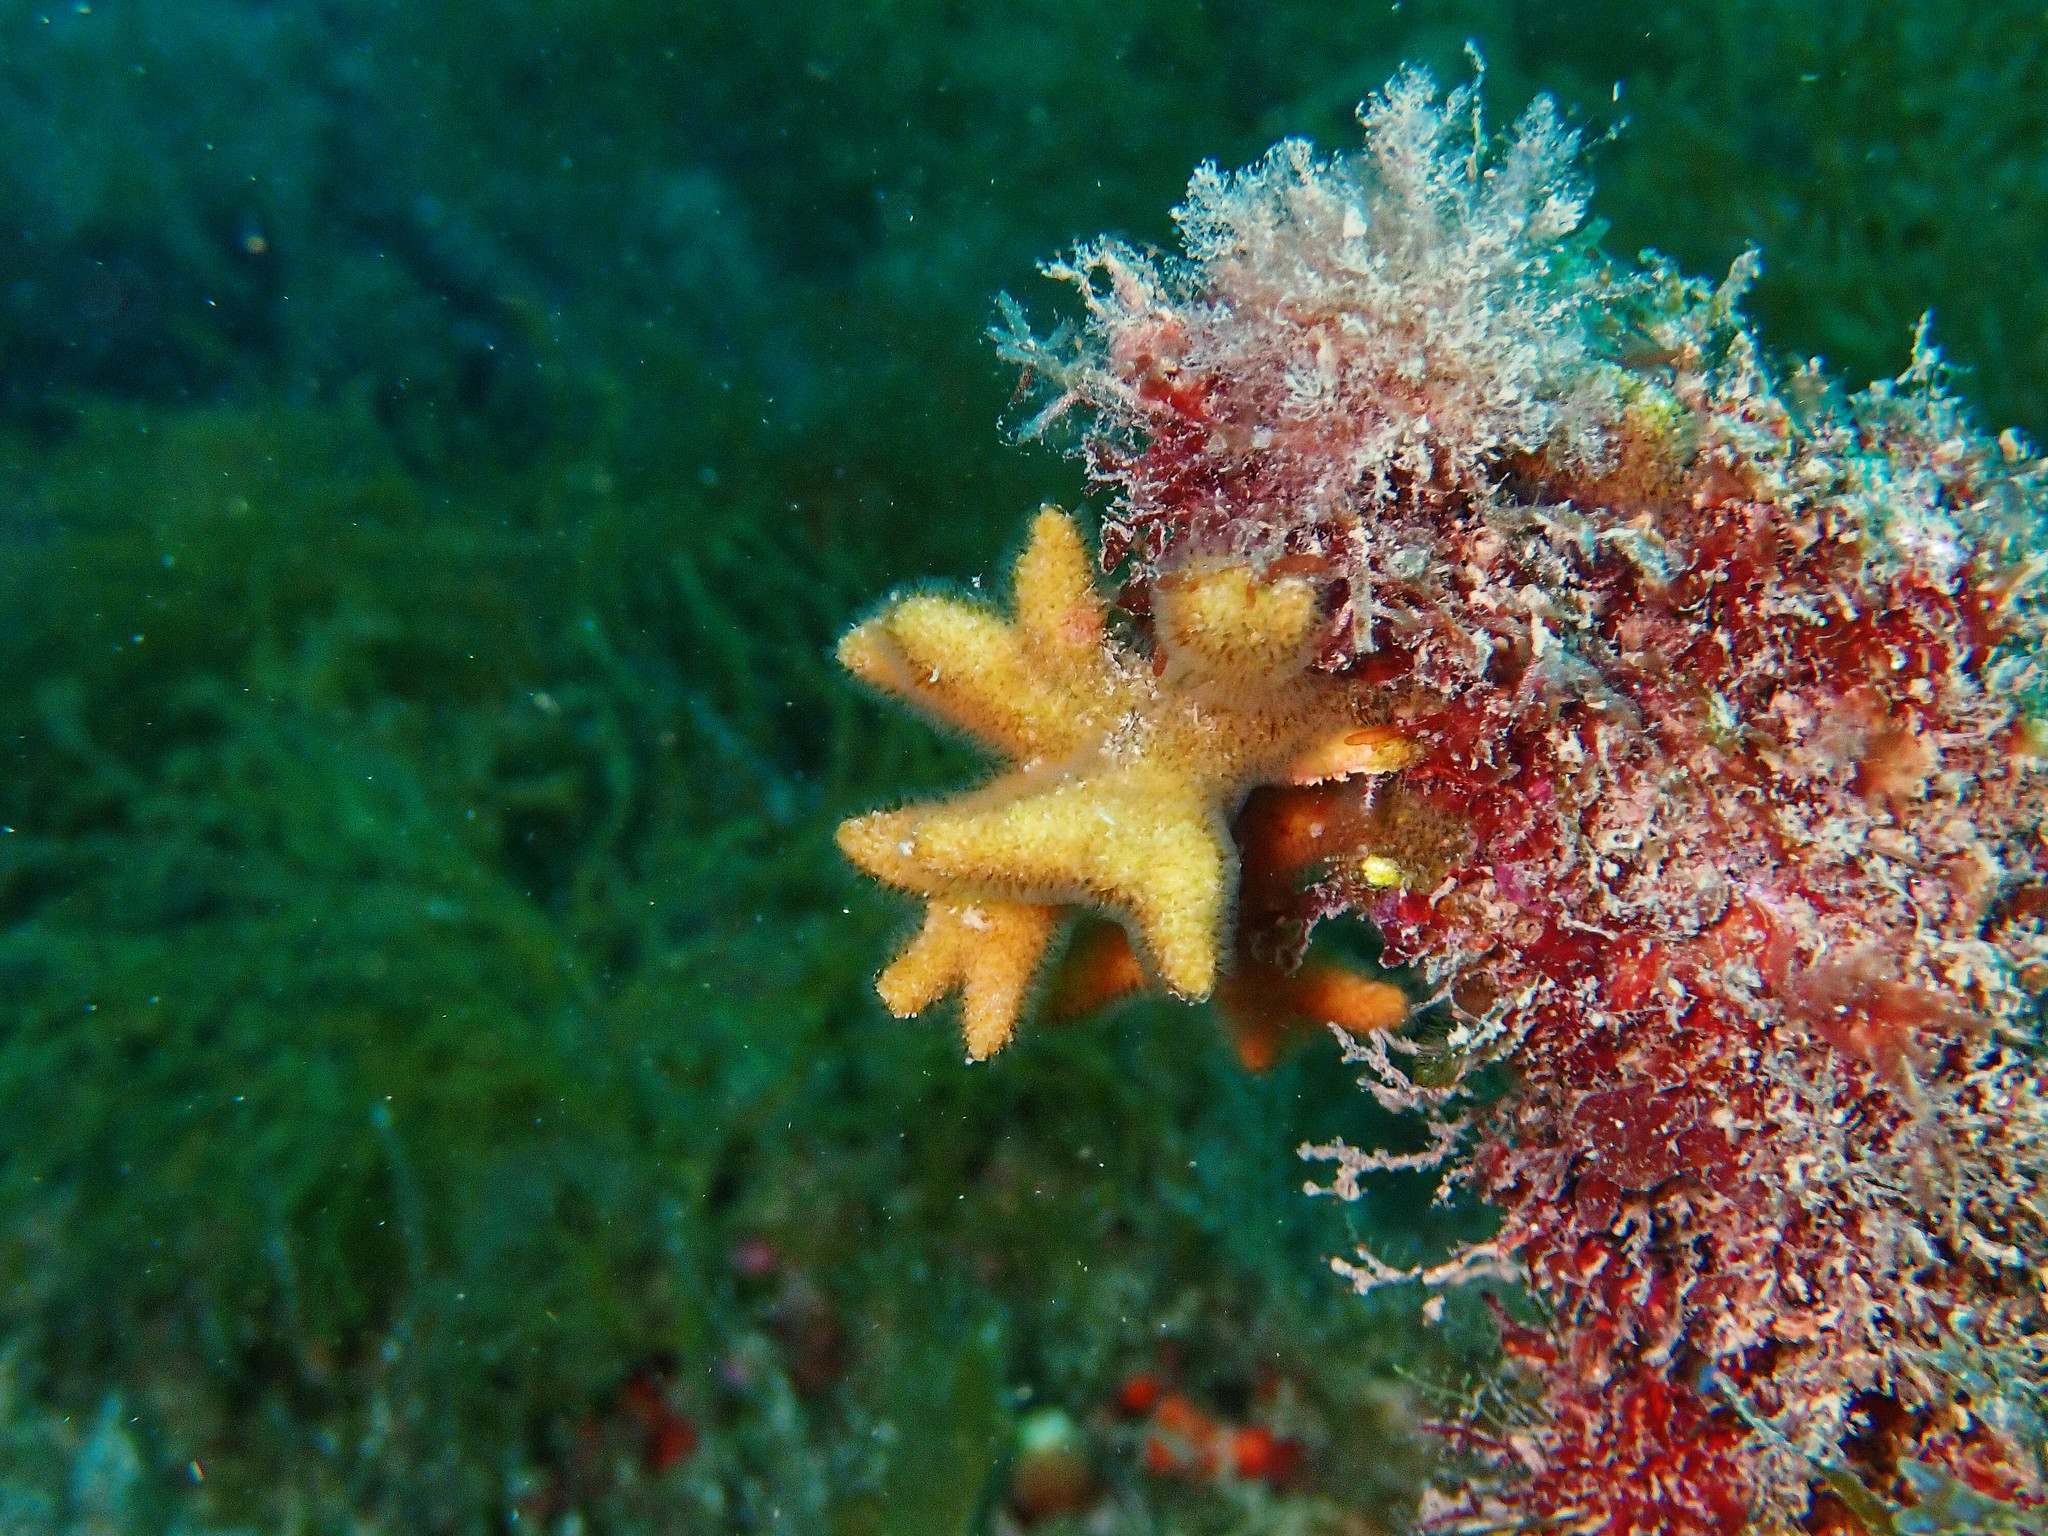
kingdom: Animalia
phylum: Bryozoa
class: Gymnolaemata
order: Cheilostomatida
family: Celleporidae
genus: Turbicellepora
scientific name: Turbicellepora avicularis
